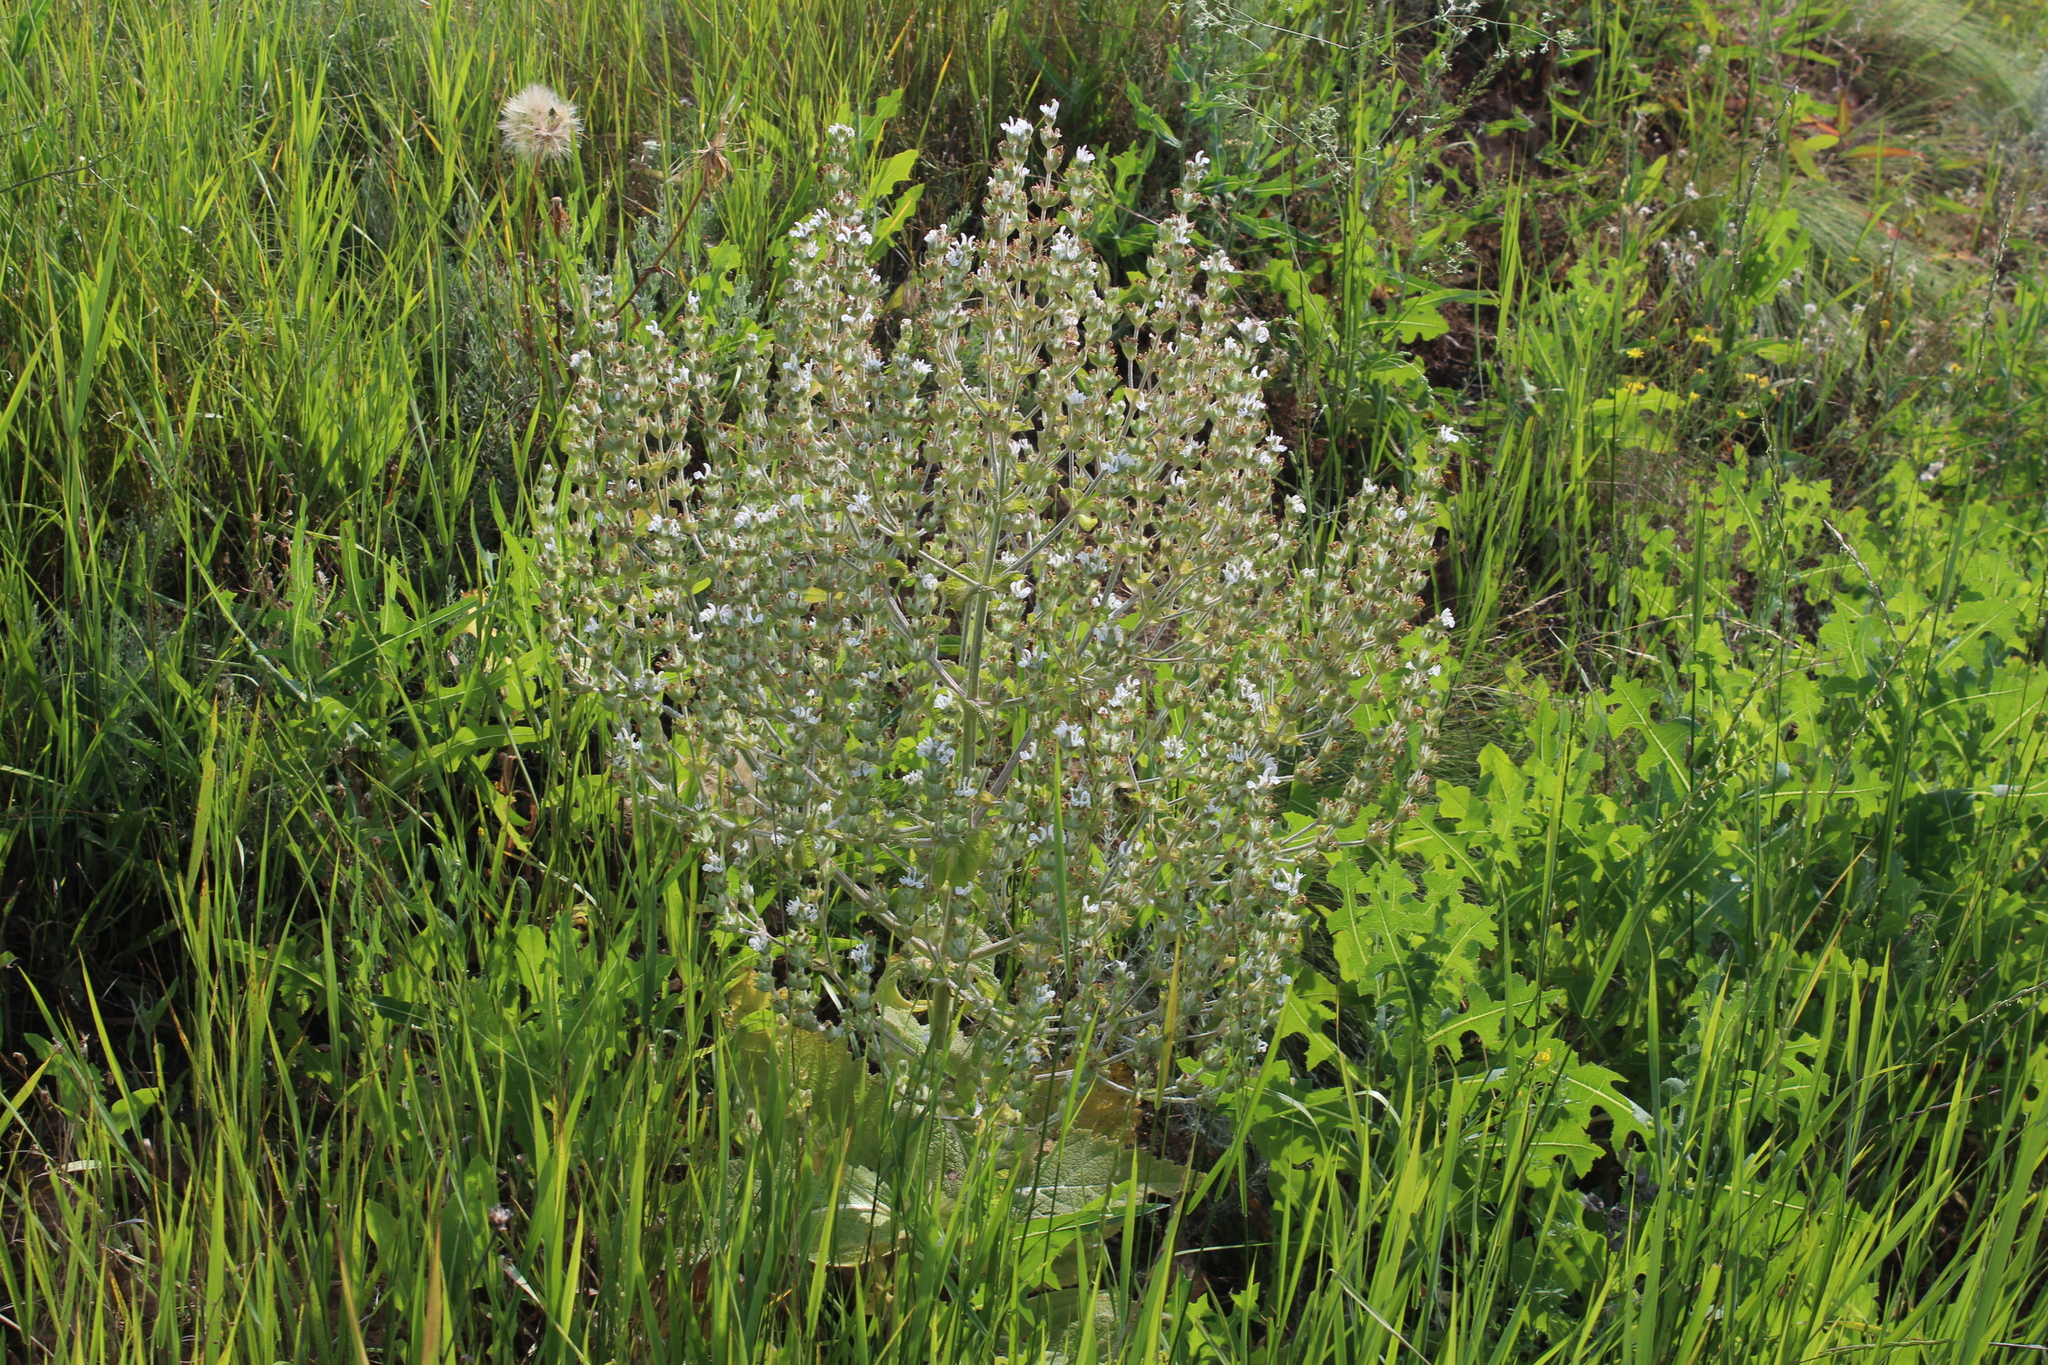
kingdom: Plantae
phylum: Tracheophyta
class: Magnoliopsida
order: Lamiales
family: Lamiaceae
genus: Salvia
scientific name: Salvia aethiopis
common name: Mediterranean sage
